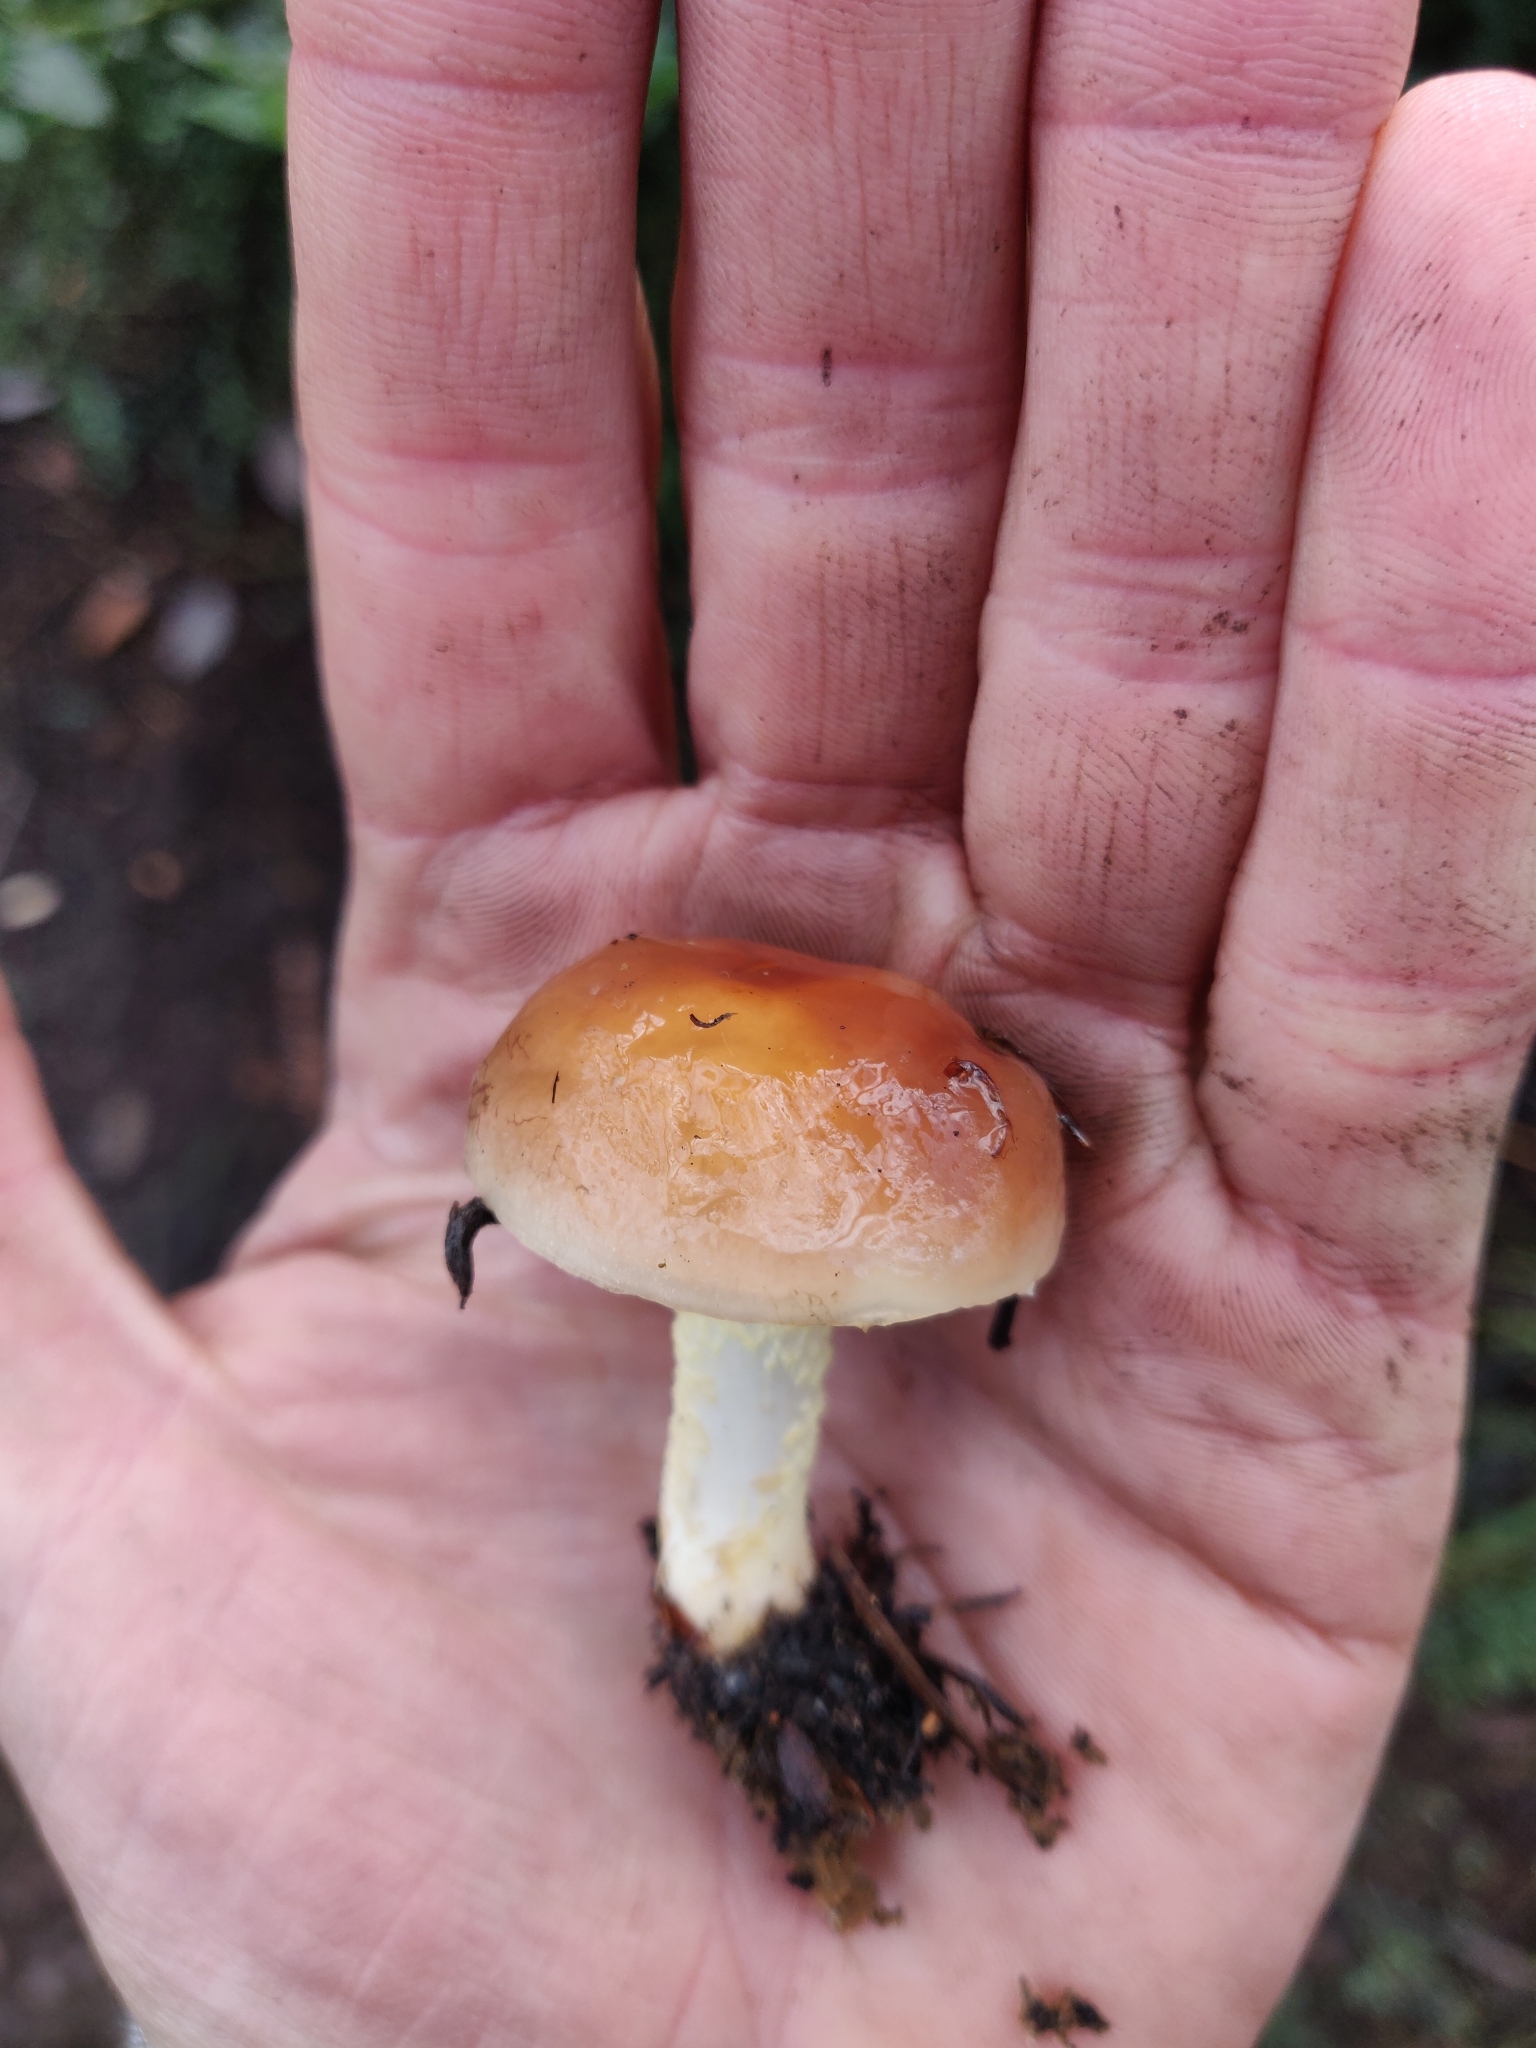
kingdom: Fungi
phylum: Basidiomycota
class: Agaricomycetes
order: Agaricales
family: Strophariaceae
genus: Pholiota
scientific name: Pholiota velaglutinosa
